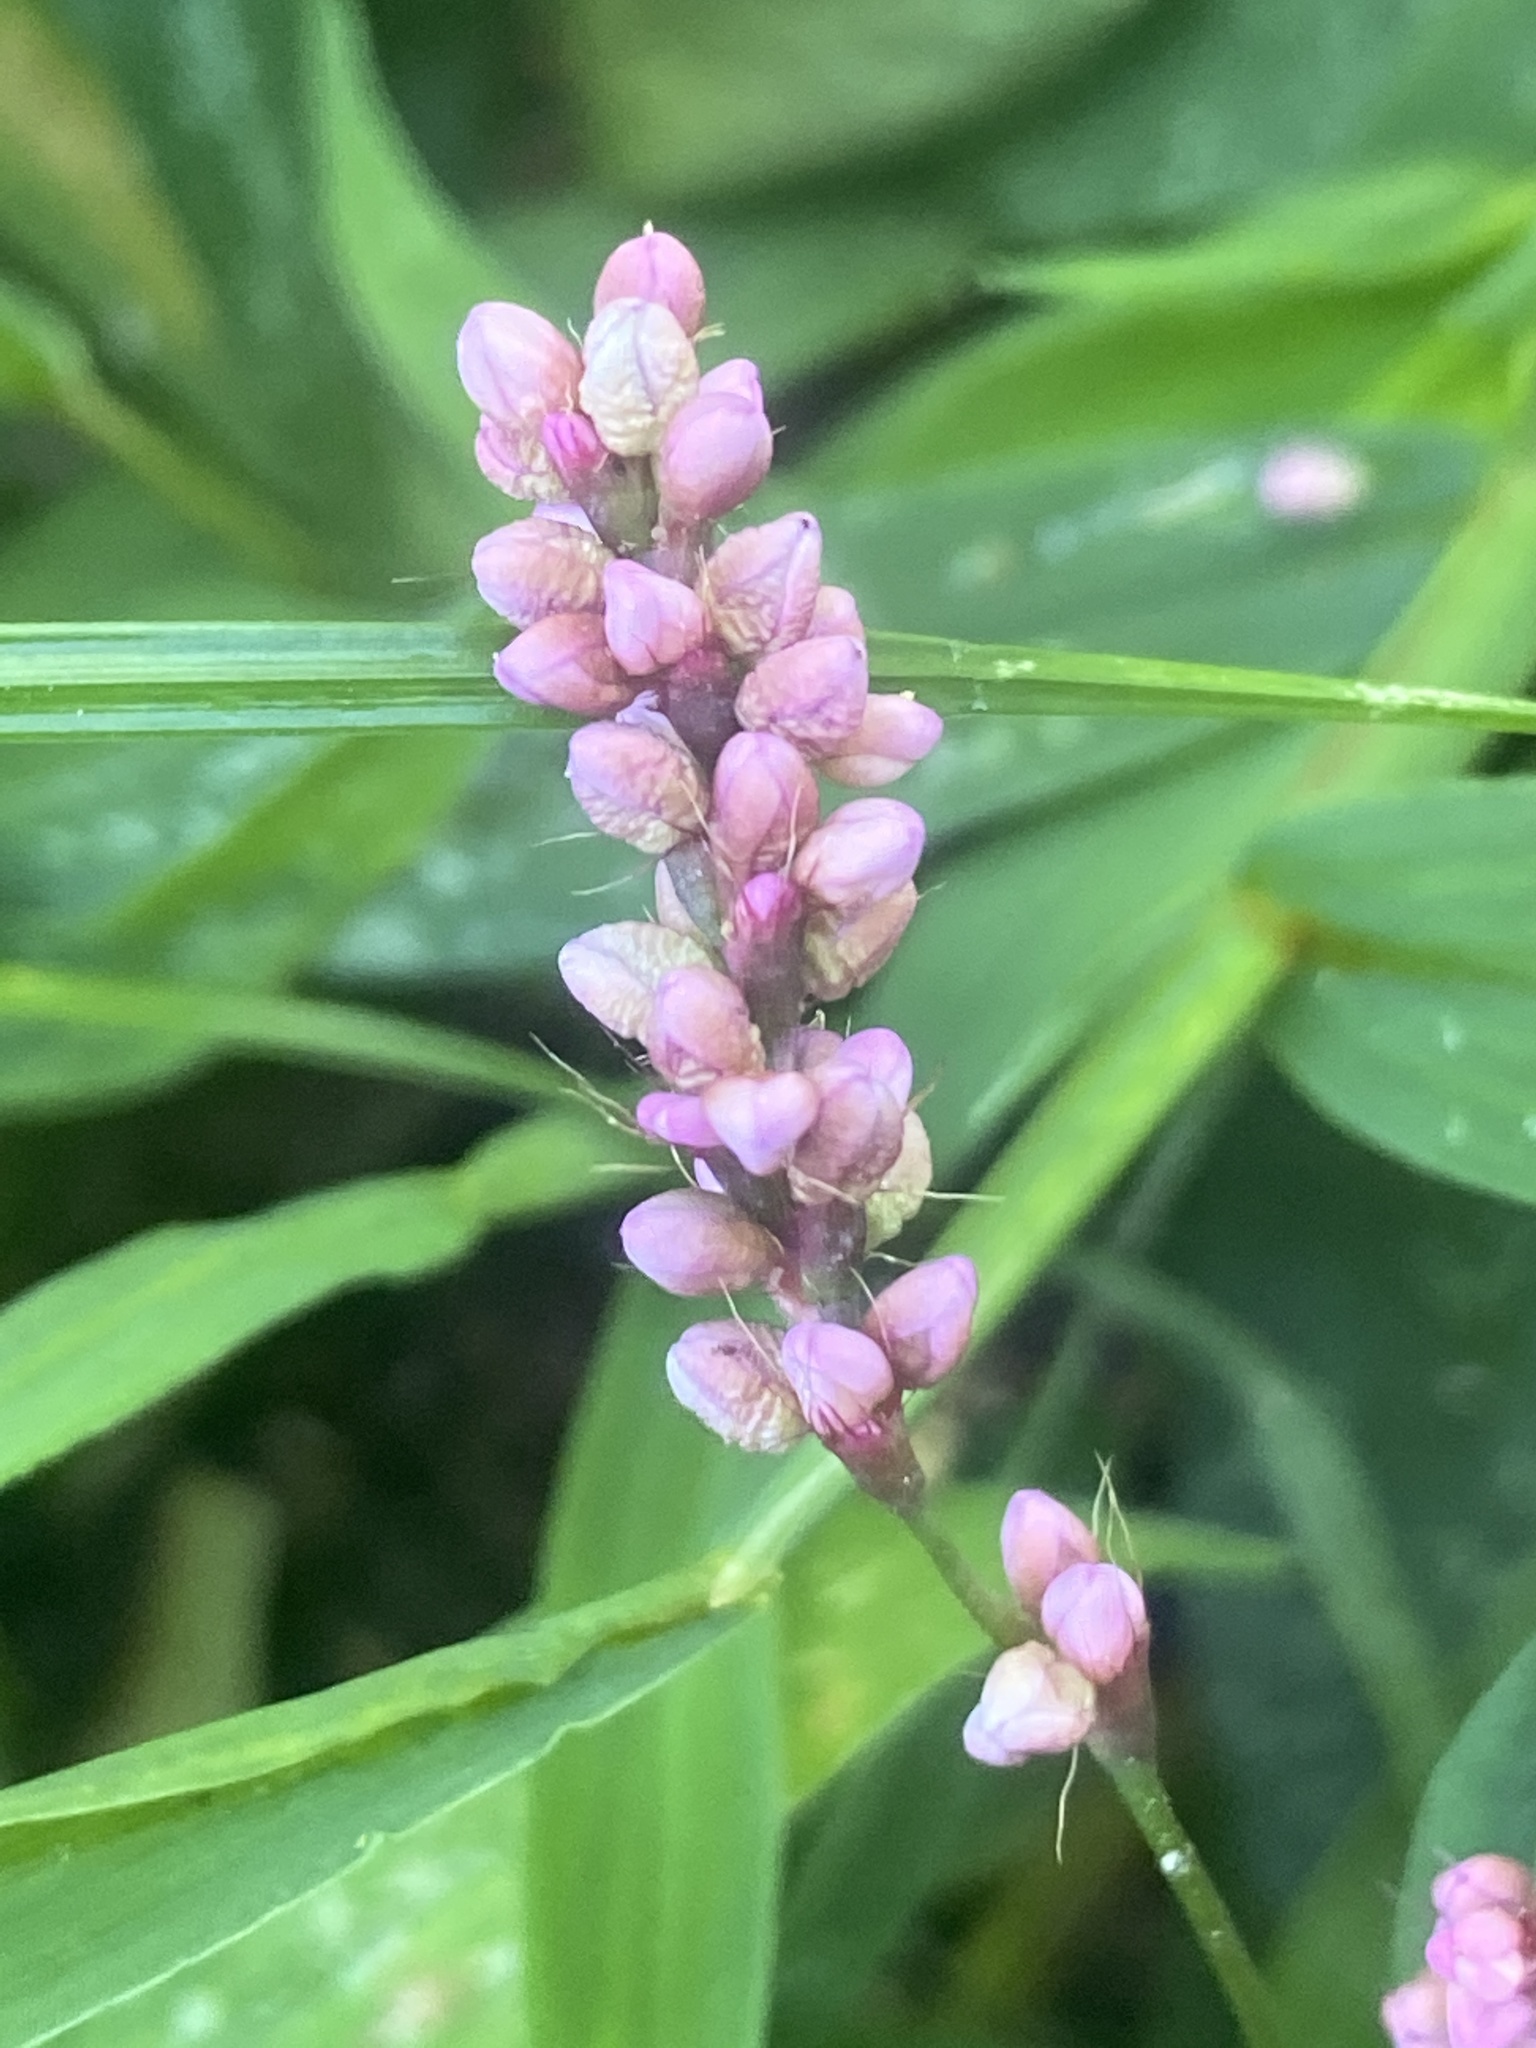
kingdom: Plantae
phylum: Tracheophyta
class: Magnoliopsida
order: Caryophyllales
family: Polygonaceae
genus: Persicaria
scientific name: Persicaria longiseta
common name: Bristly lady's-thumb
